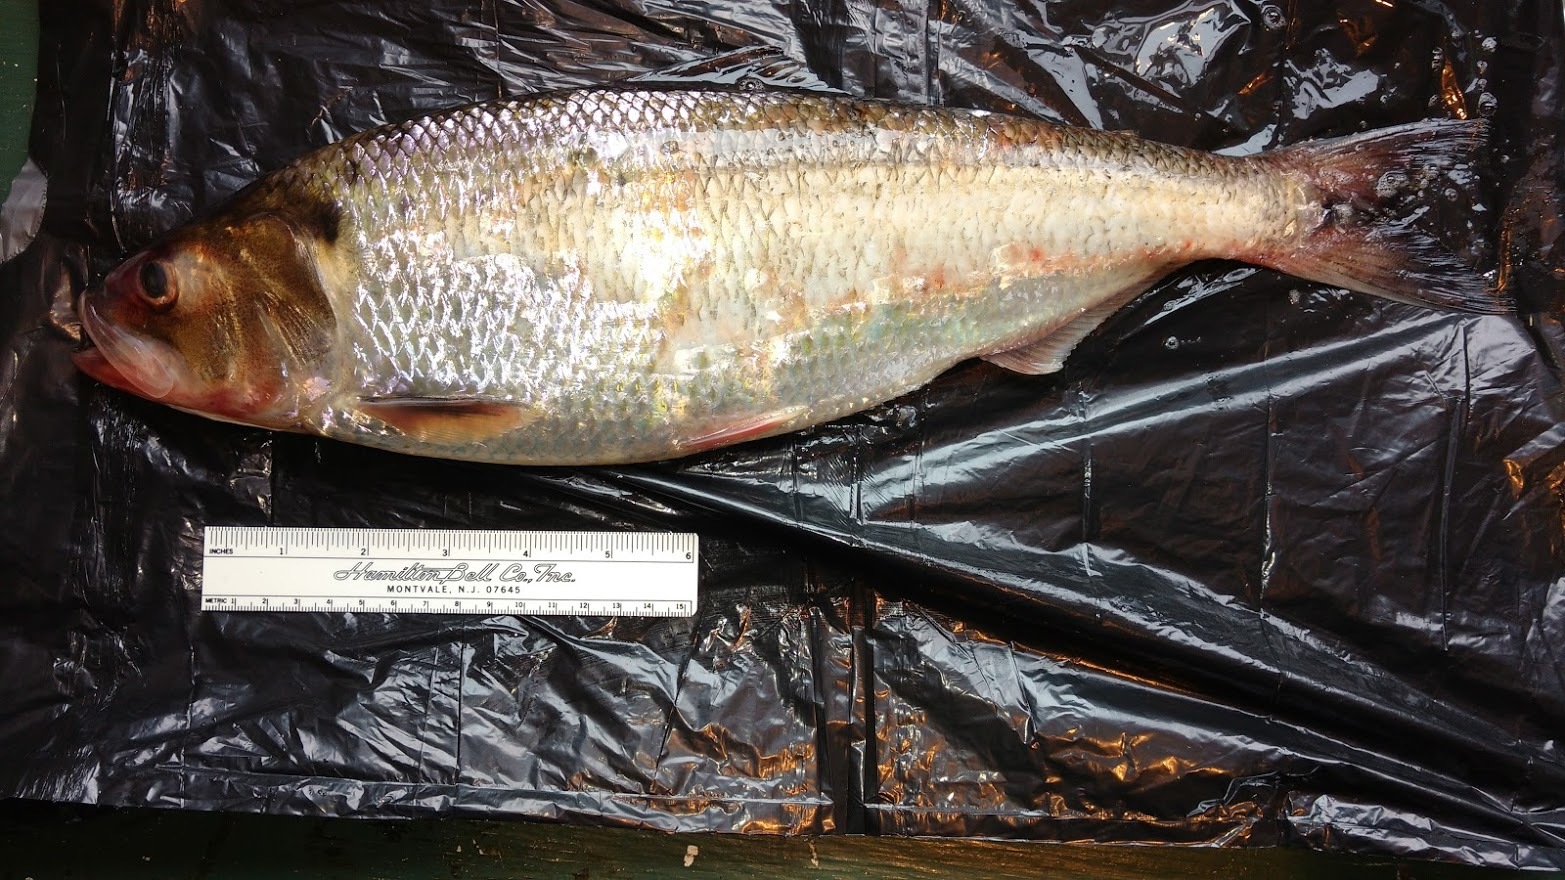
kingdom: Animalia
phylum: Chordata
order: Clupeiformes
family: Clupeidae
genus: Alosa
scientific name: Alosa sapidissima
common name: American shad
